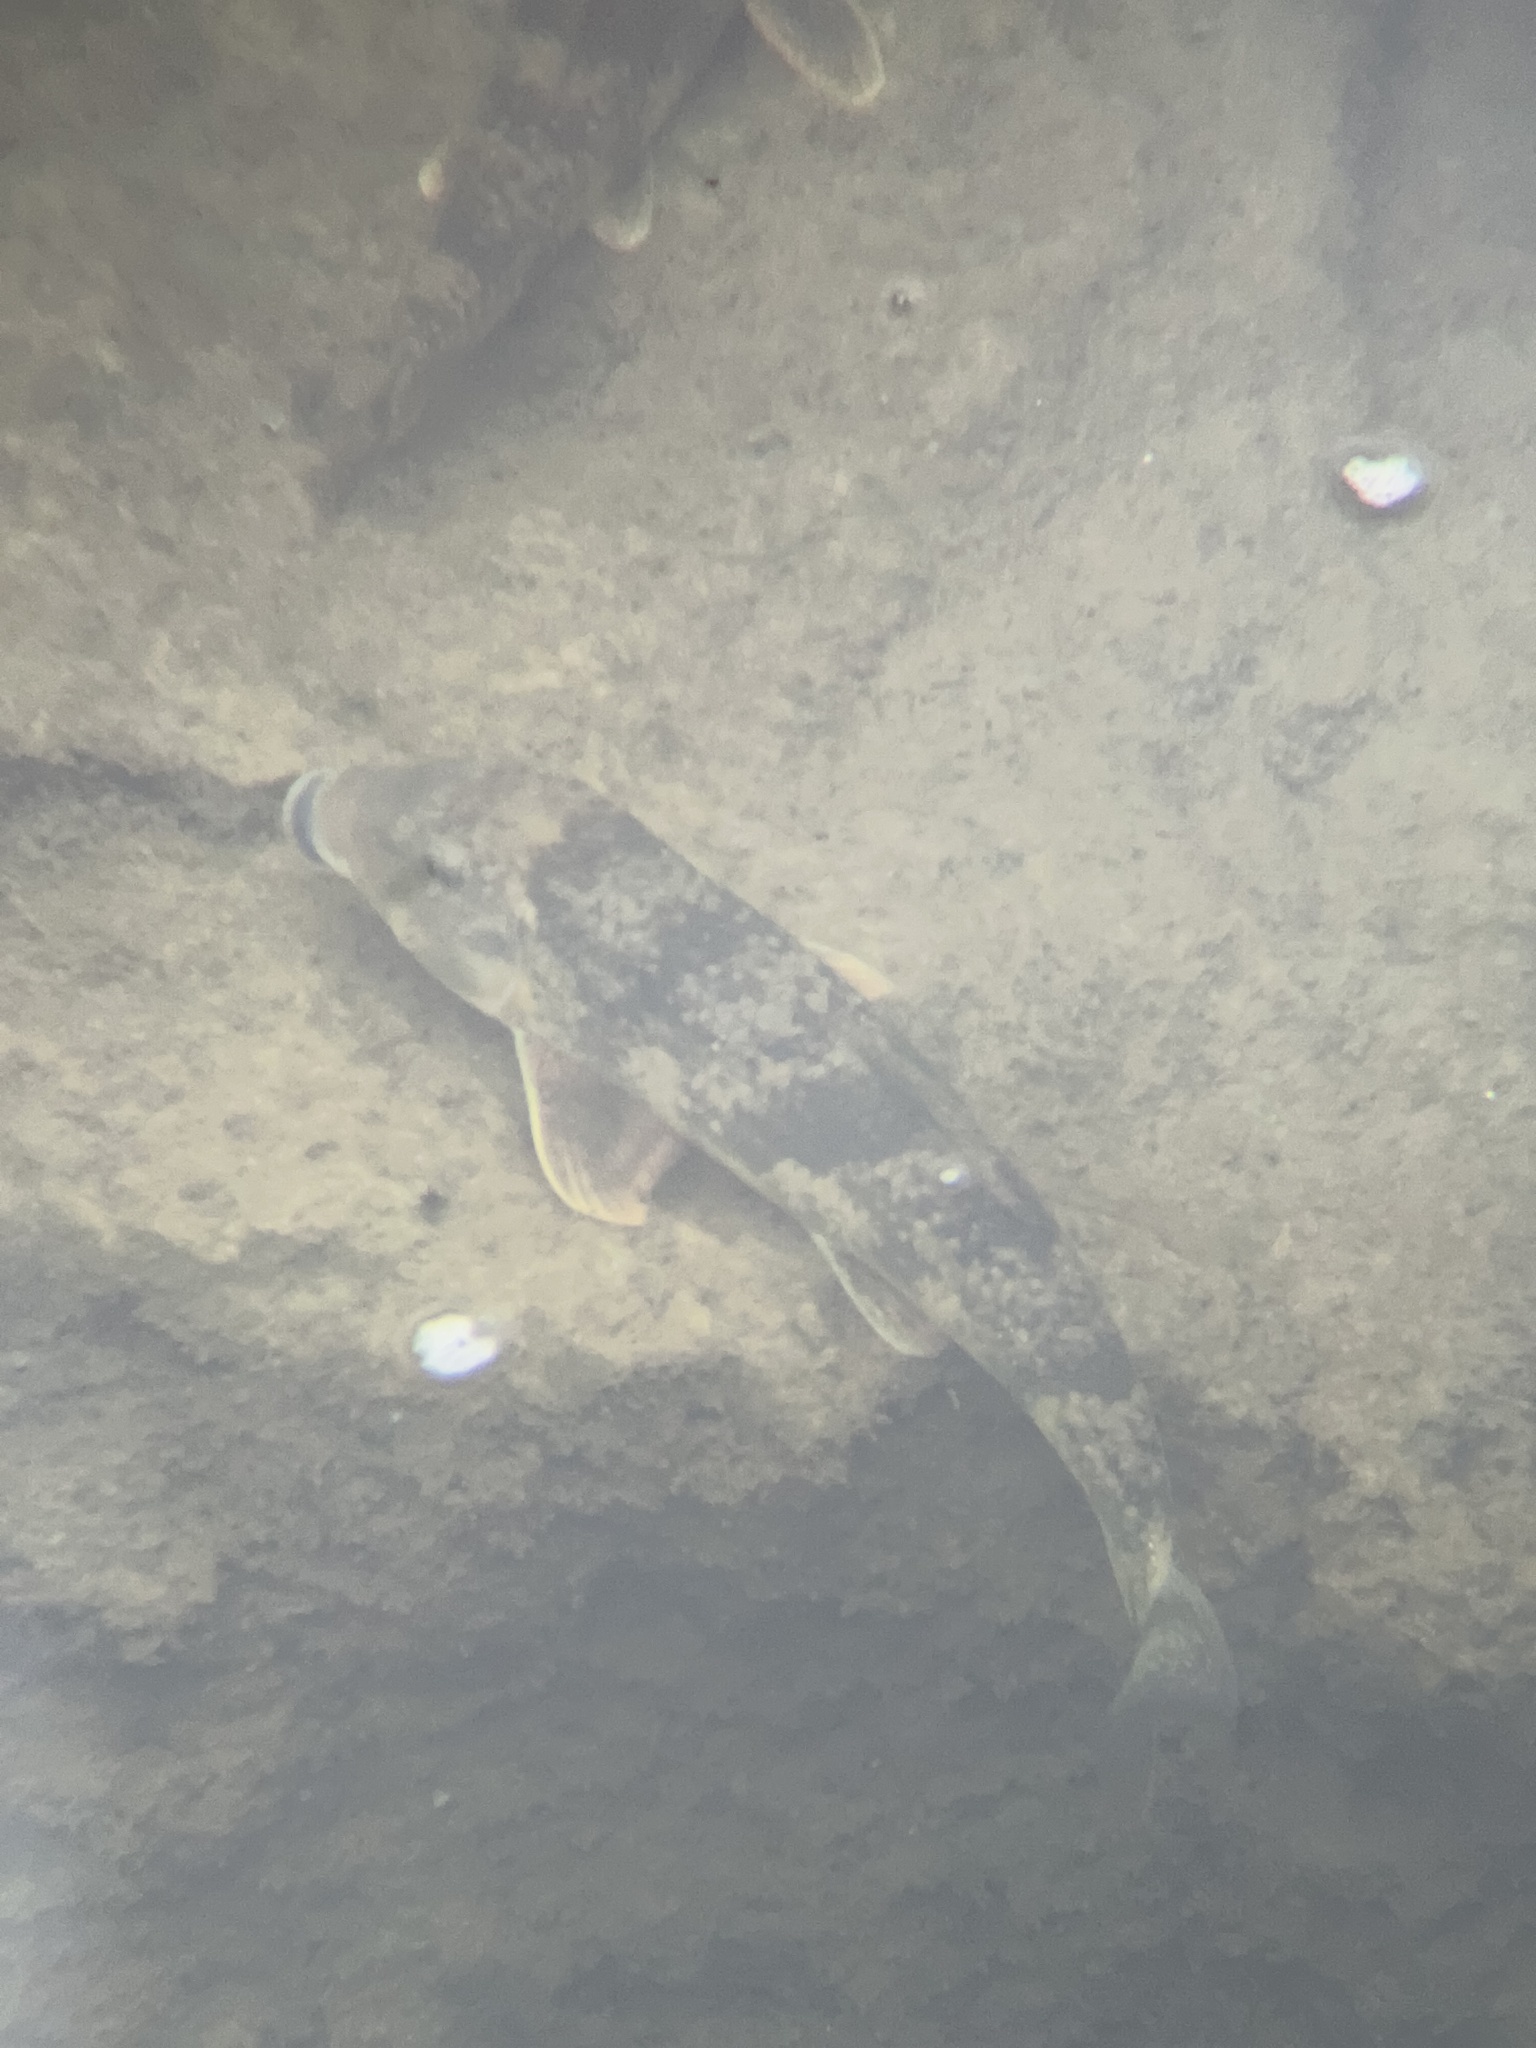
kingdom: Animalia
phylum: Chordata
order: Cypriniformes
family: Catostomidae
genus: Hypentelium
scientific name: Hypentelium nigricans
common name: Northern hog sucker
